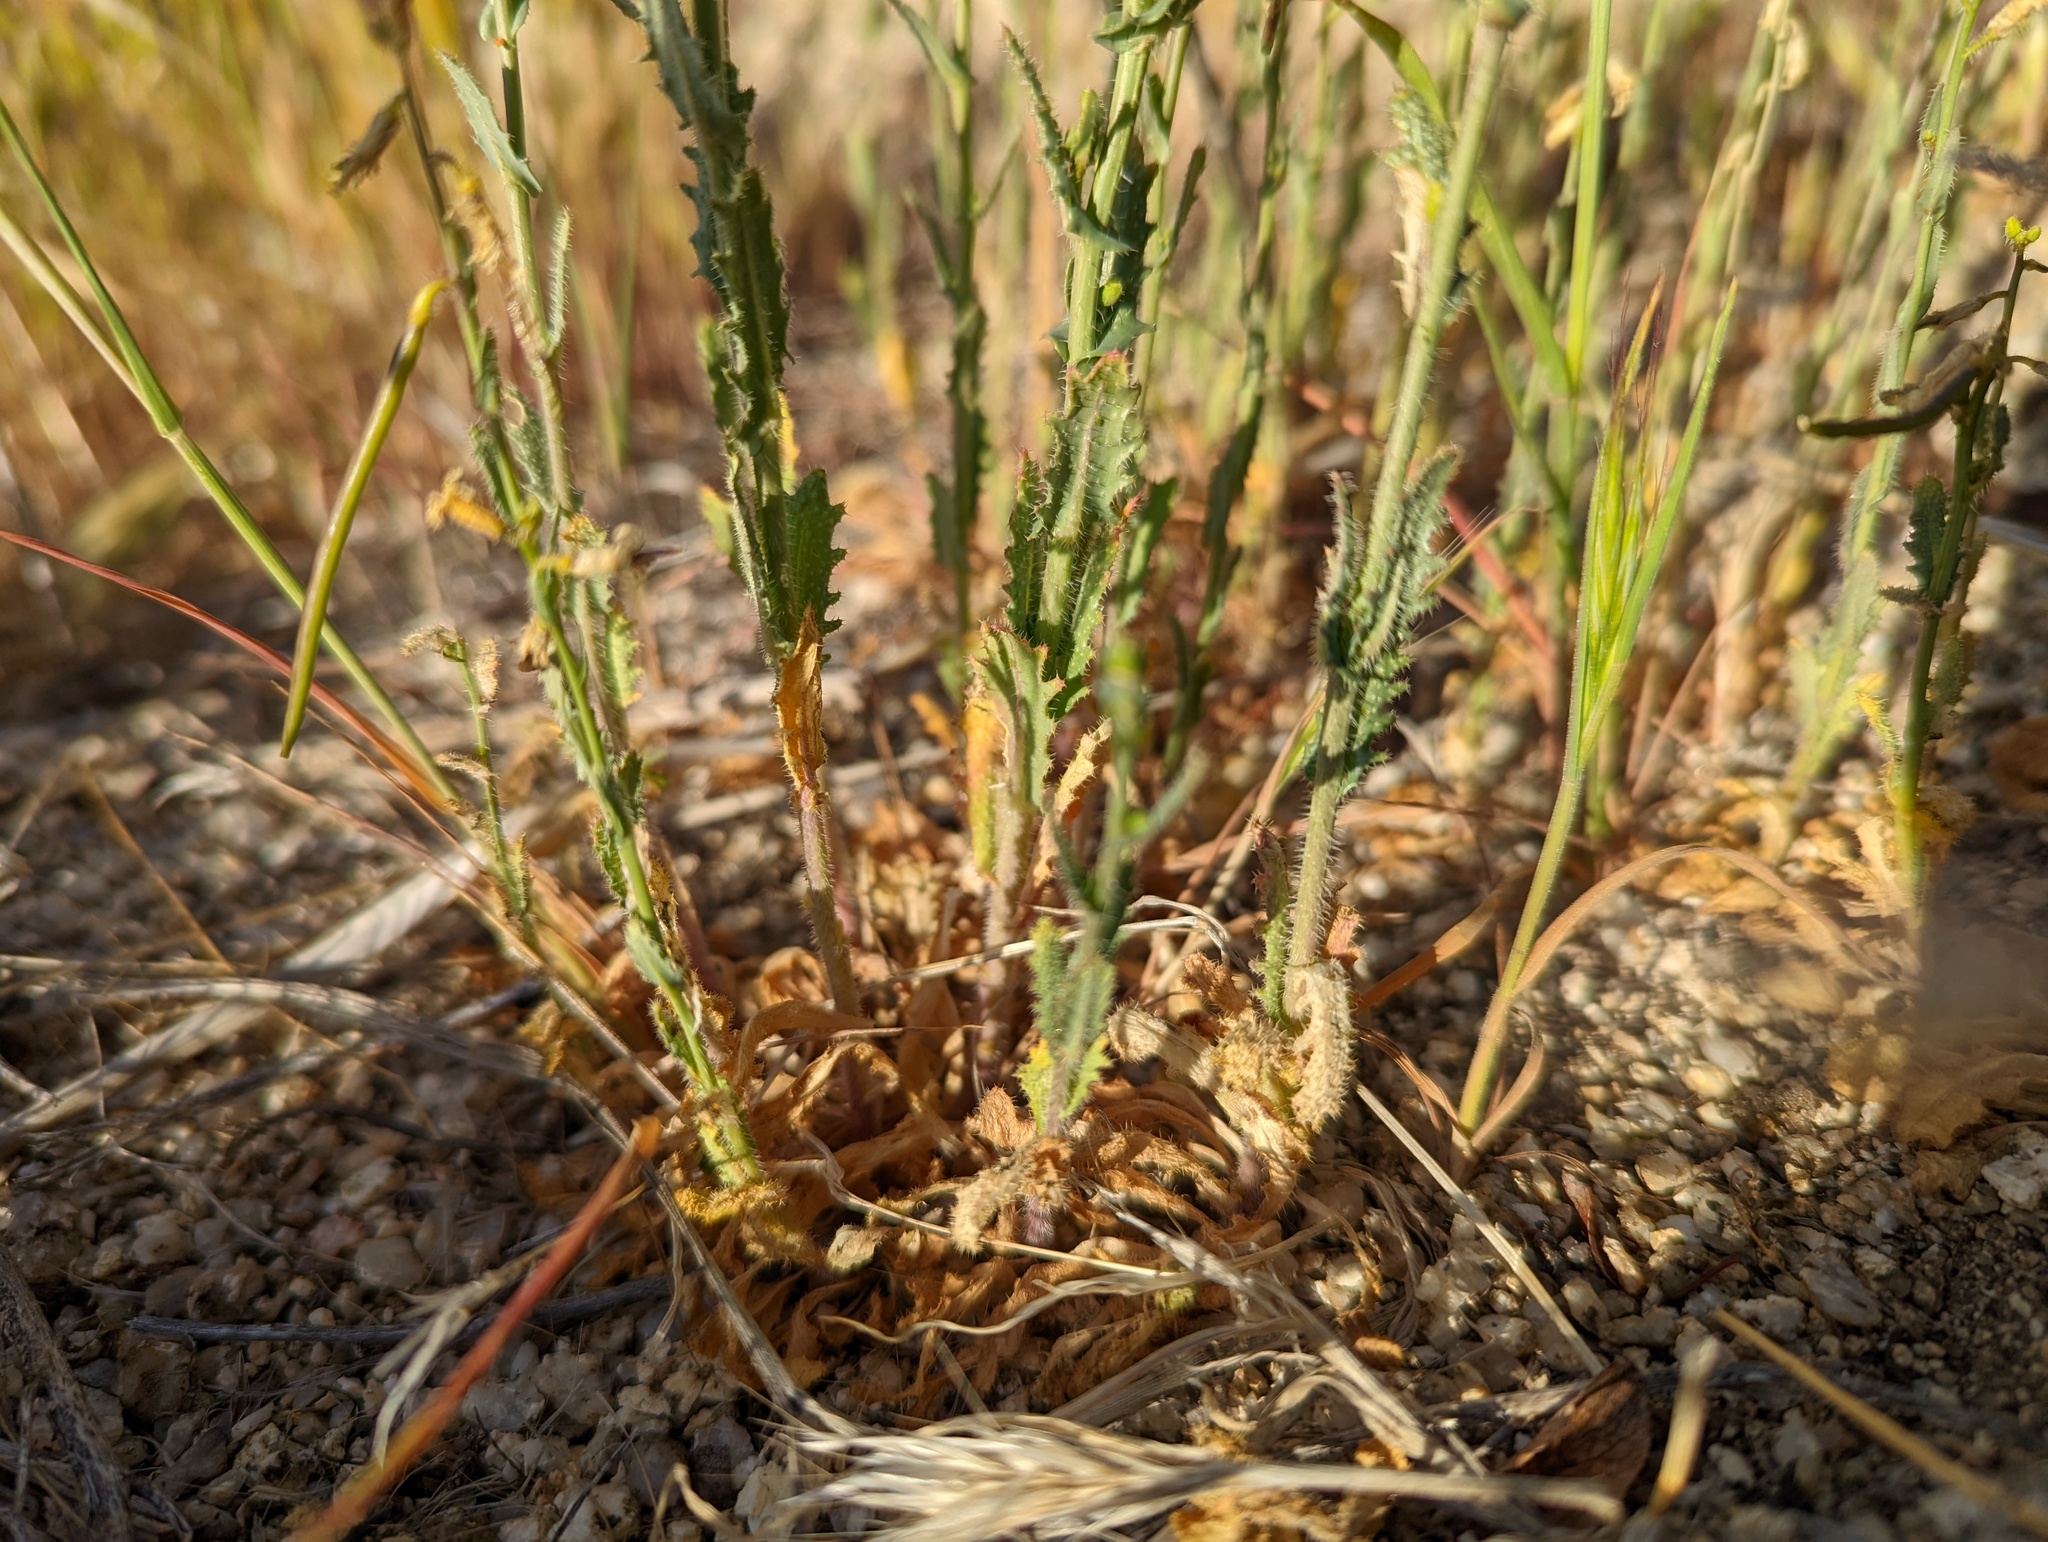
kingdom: Plantae
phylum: Tracheophyta
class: Magnoliopsida
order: Brassicales
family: Brassicaceae
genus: Streptanthus
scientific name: Streptanthus simulans
